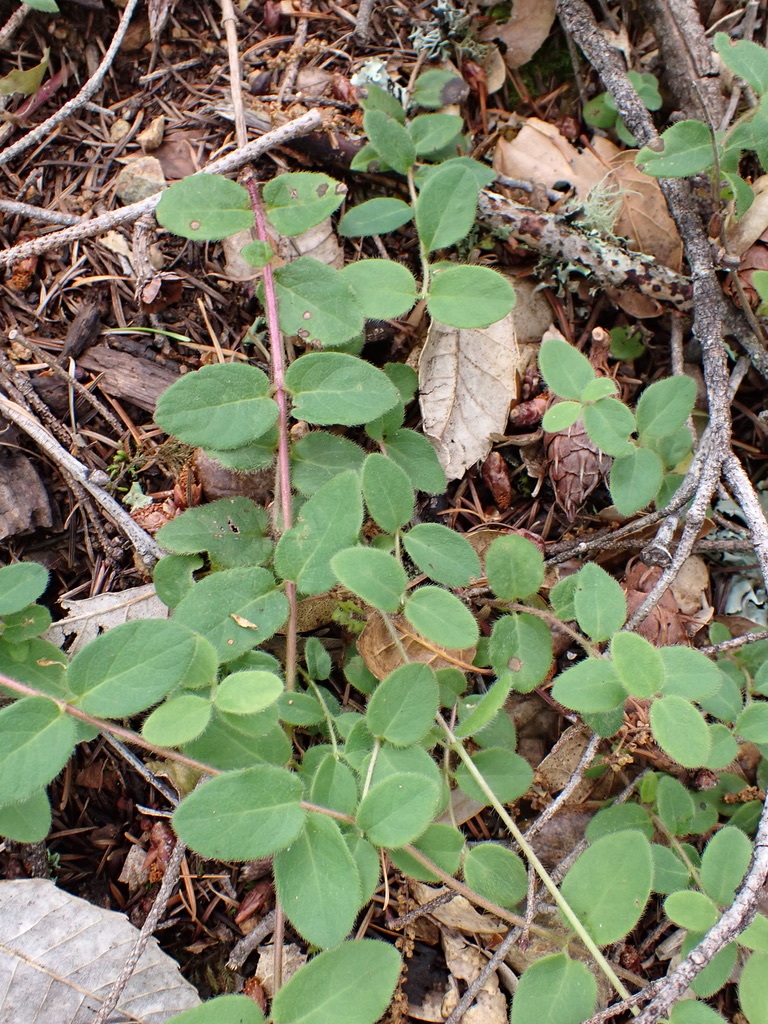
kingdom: Plantae
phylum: Tracheophyta
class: Magnoliopsida
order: Dipsacales
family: Caprifoliaceae
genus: Lonicera
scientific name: Lonicera hispidula
